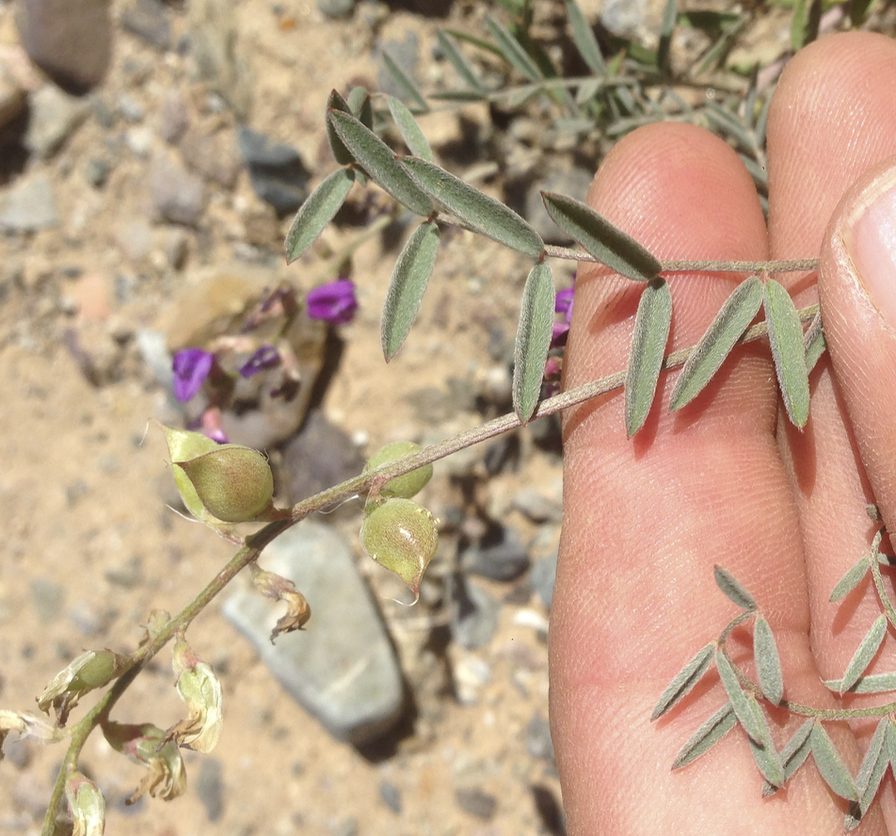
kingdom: Plantae
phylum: Tracheophyta
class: Magnoliopsida
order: Fabales
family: Fabaceae
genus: Astragalus
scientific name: Astragalus prorifer
